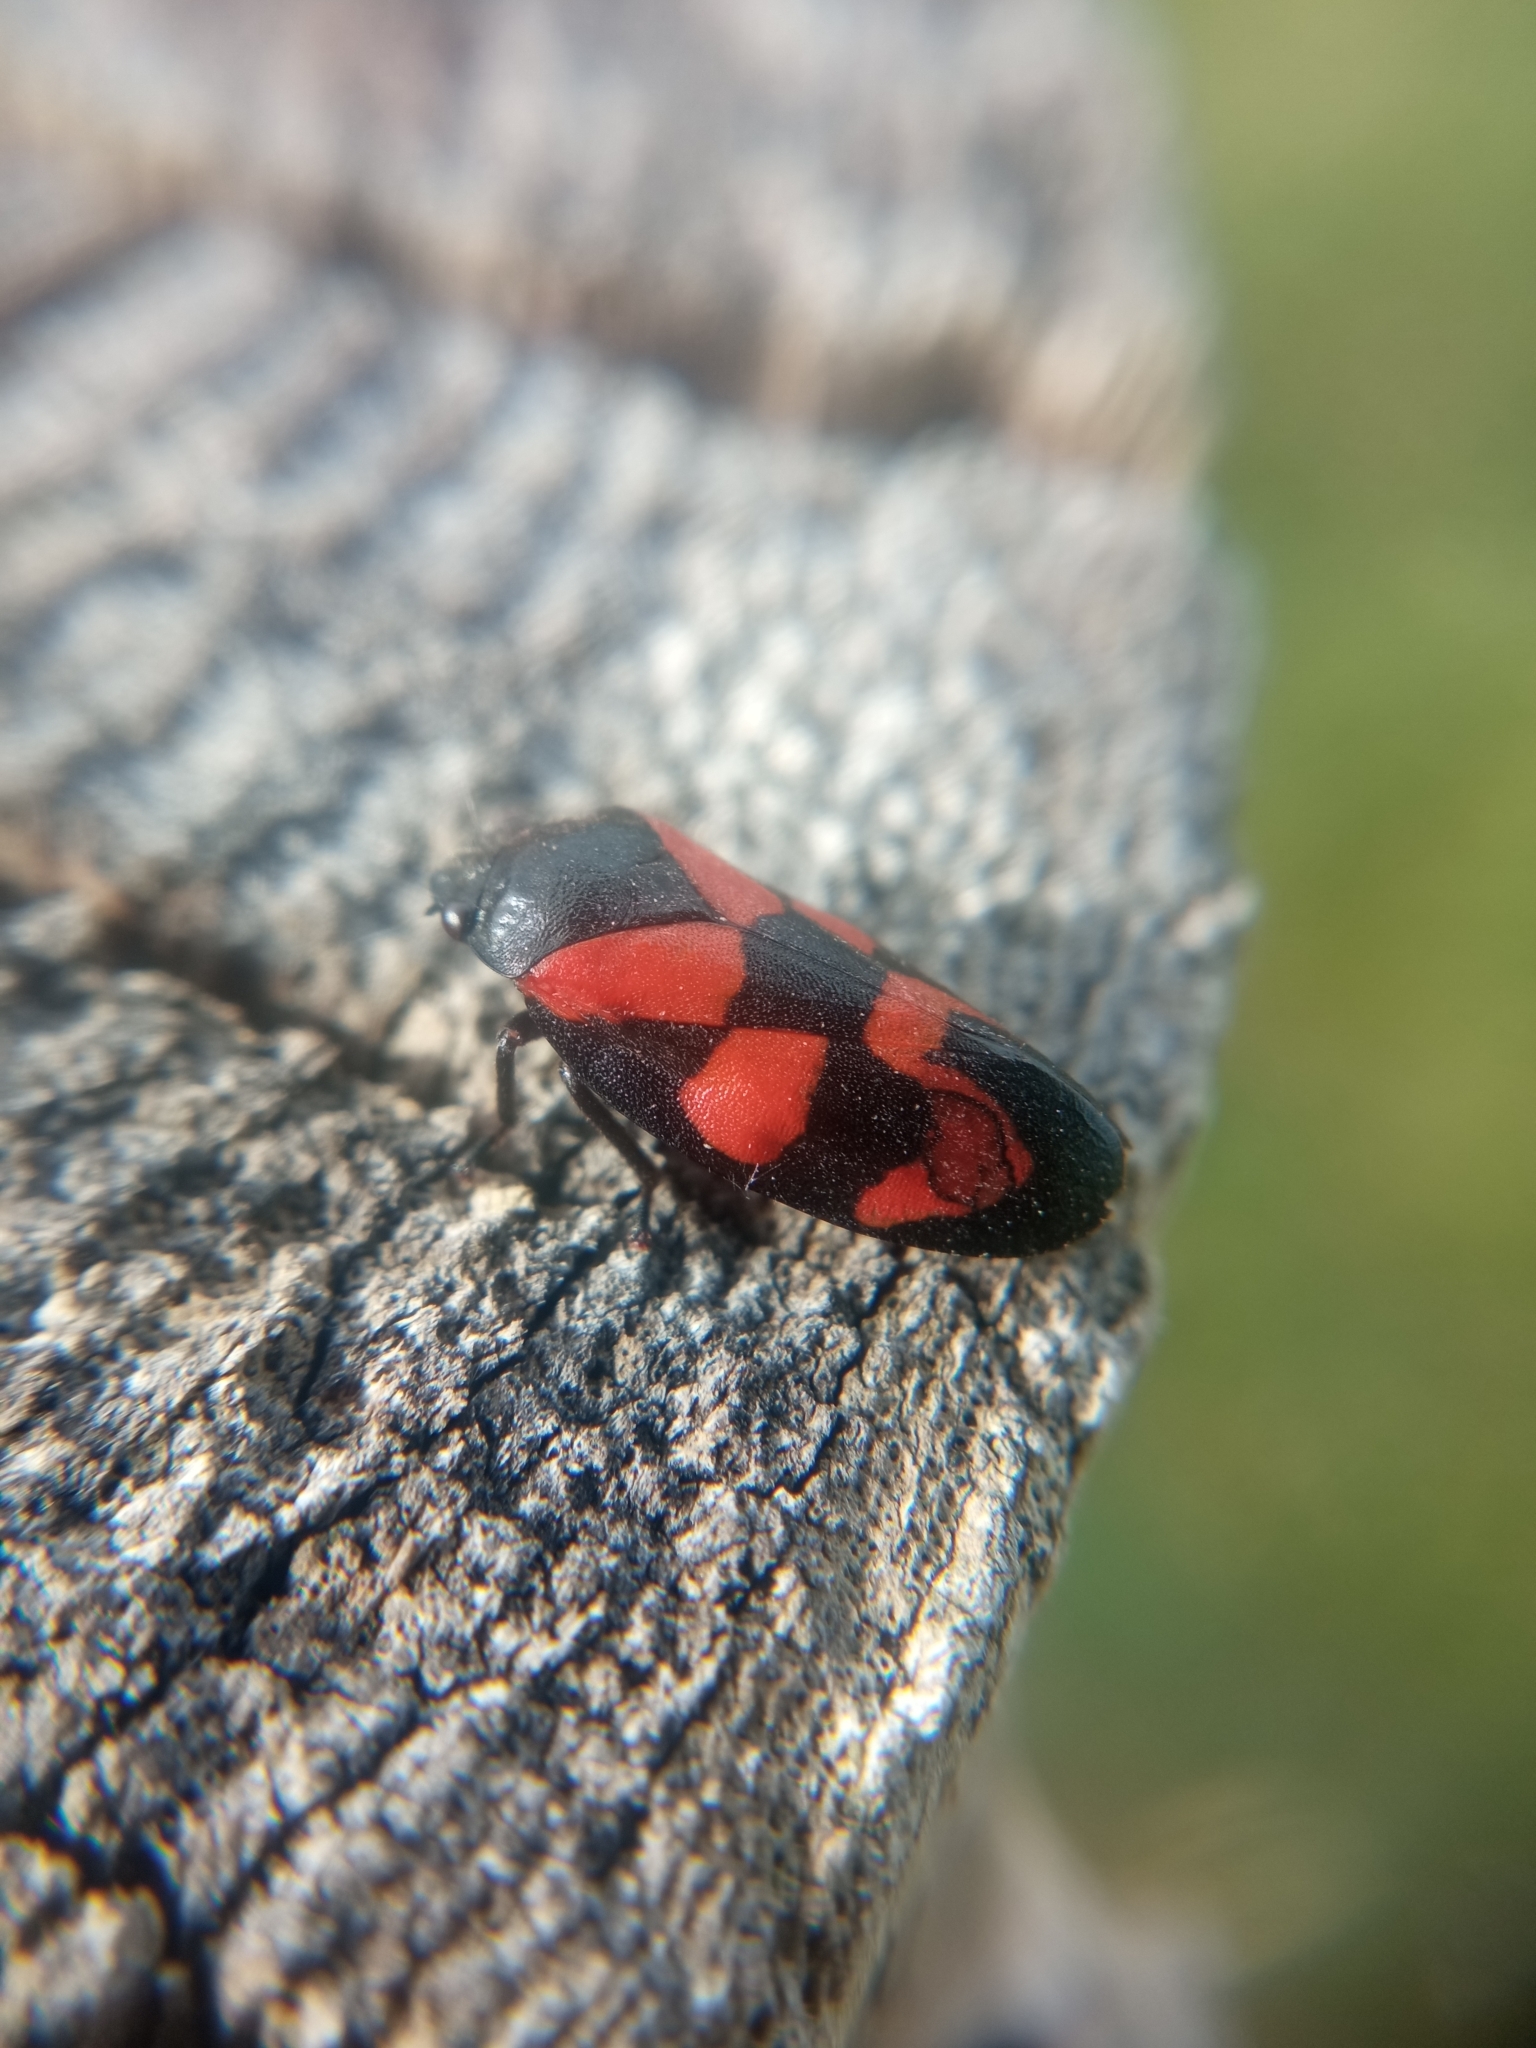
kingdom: Animalia
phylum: Arthropoda
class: Insecta
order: Hemiptera
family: Cercopidae
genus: Cercopis
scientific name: Cercopis vulnerata
